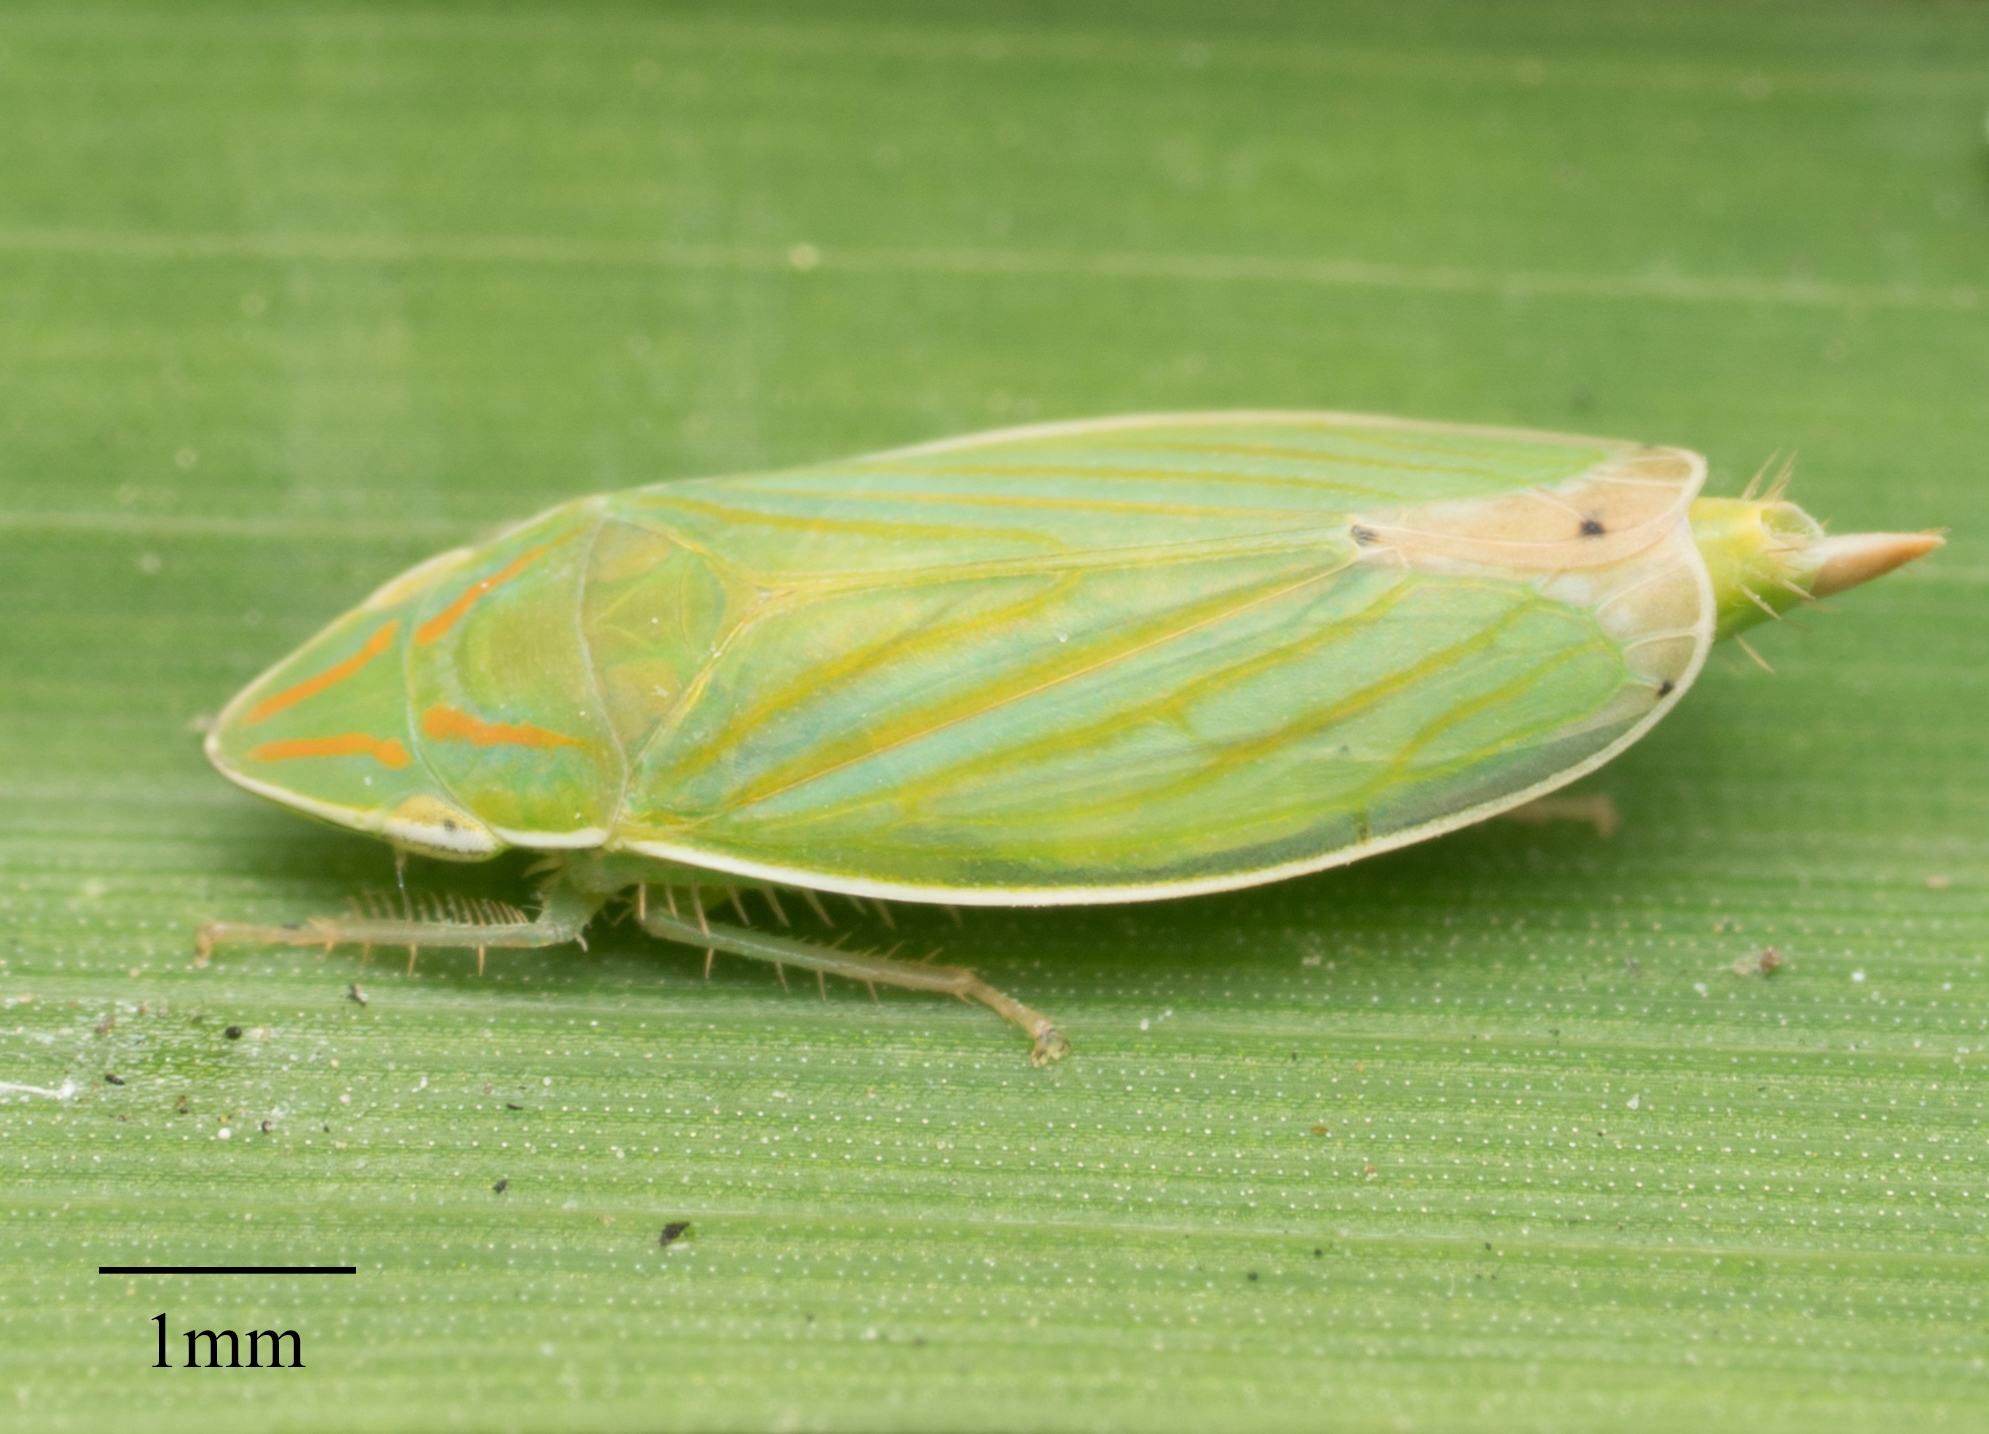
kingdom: Animalia
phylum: Arthropoda
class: Insecta
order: Hemiptera
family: Cicadellidae
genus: Spangbergiella
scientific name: Spangbergiella mexicana
